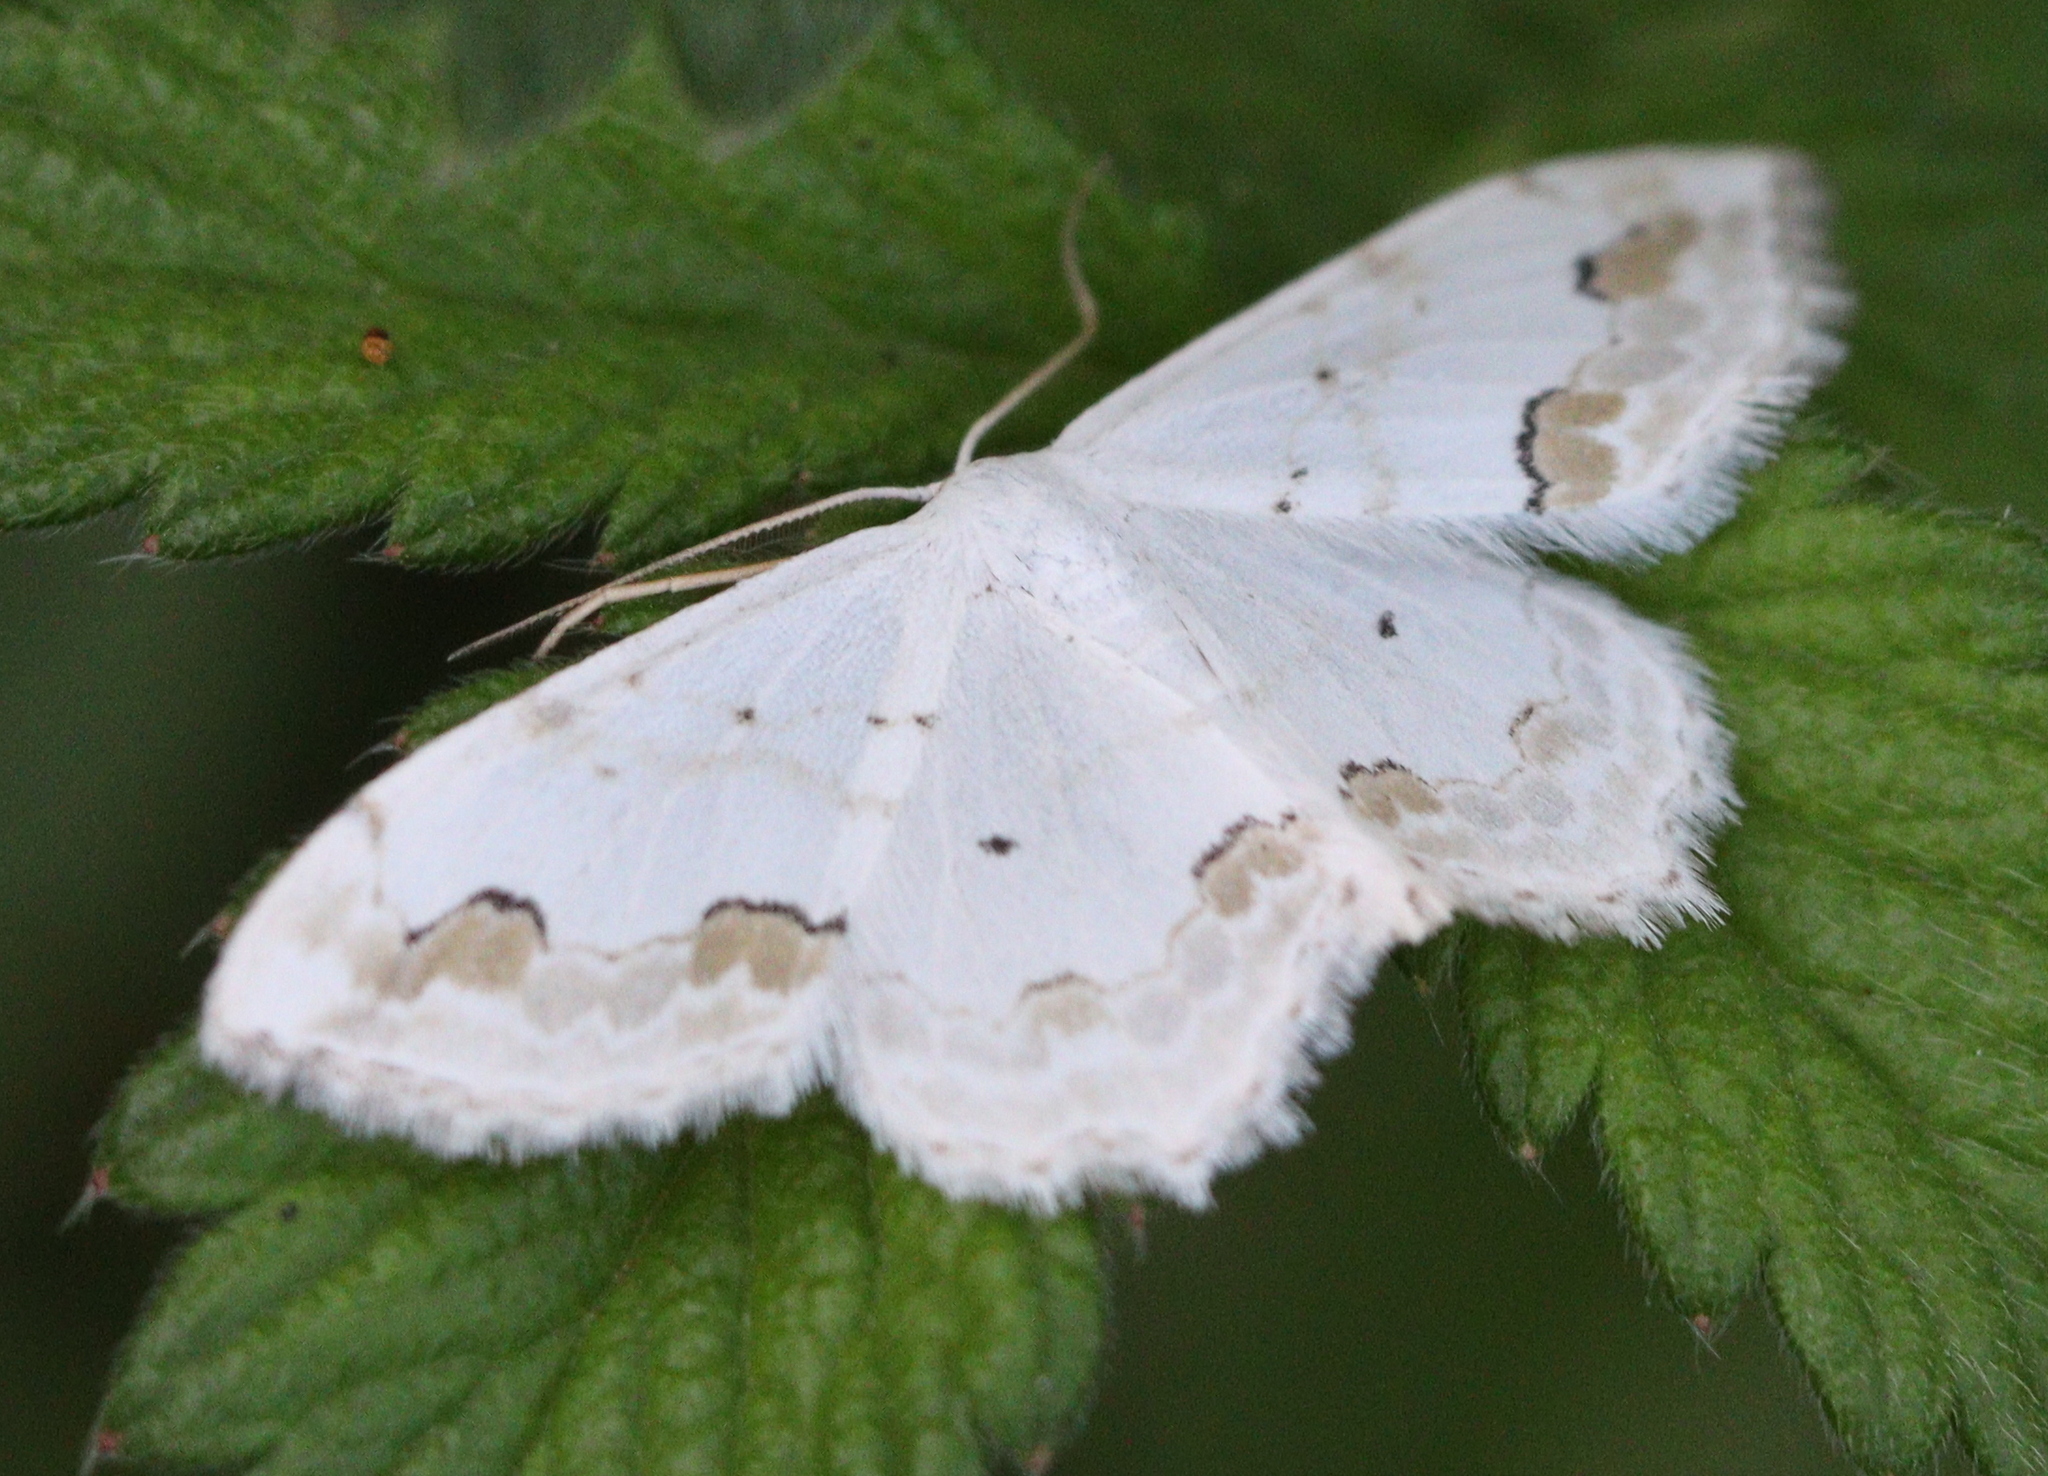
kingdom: Animalia
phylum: Arthropoda
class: Insecta
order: Lepidoptera
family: Geometridae
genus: Scopula
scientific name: Scopula ornata
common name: Lace border
